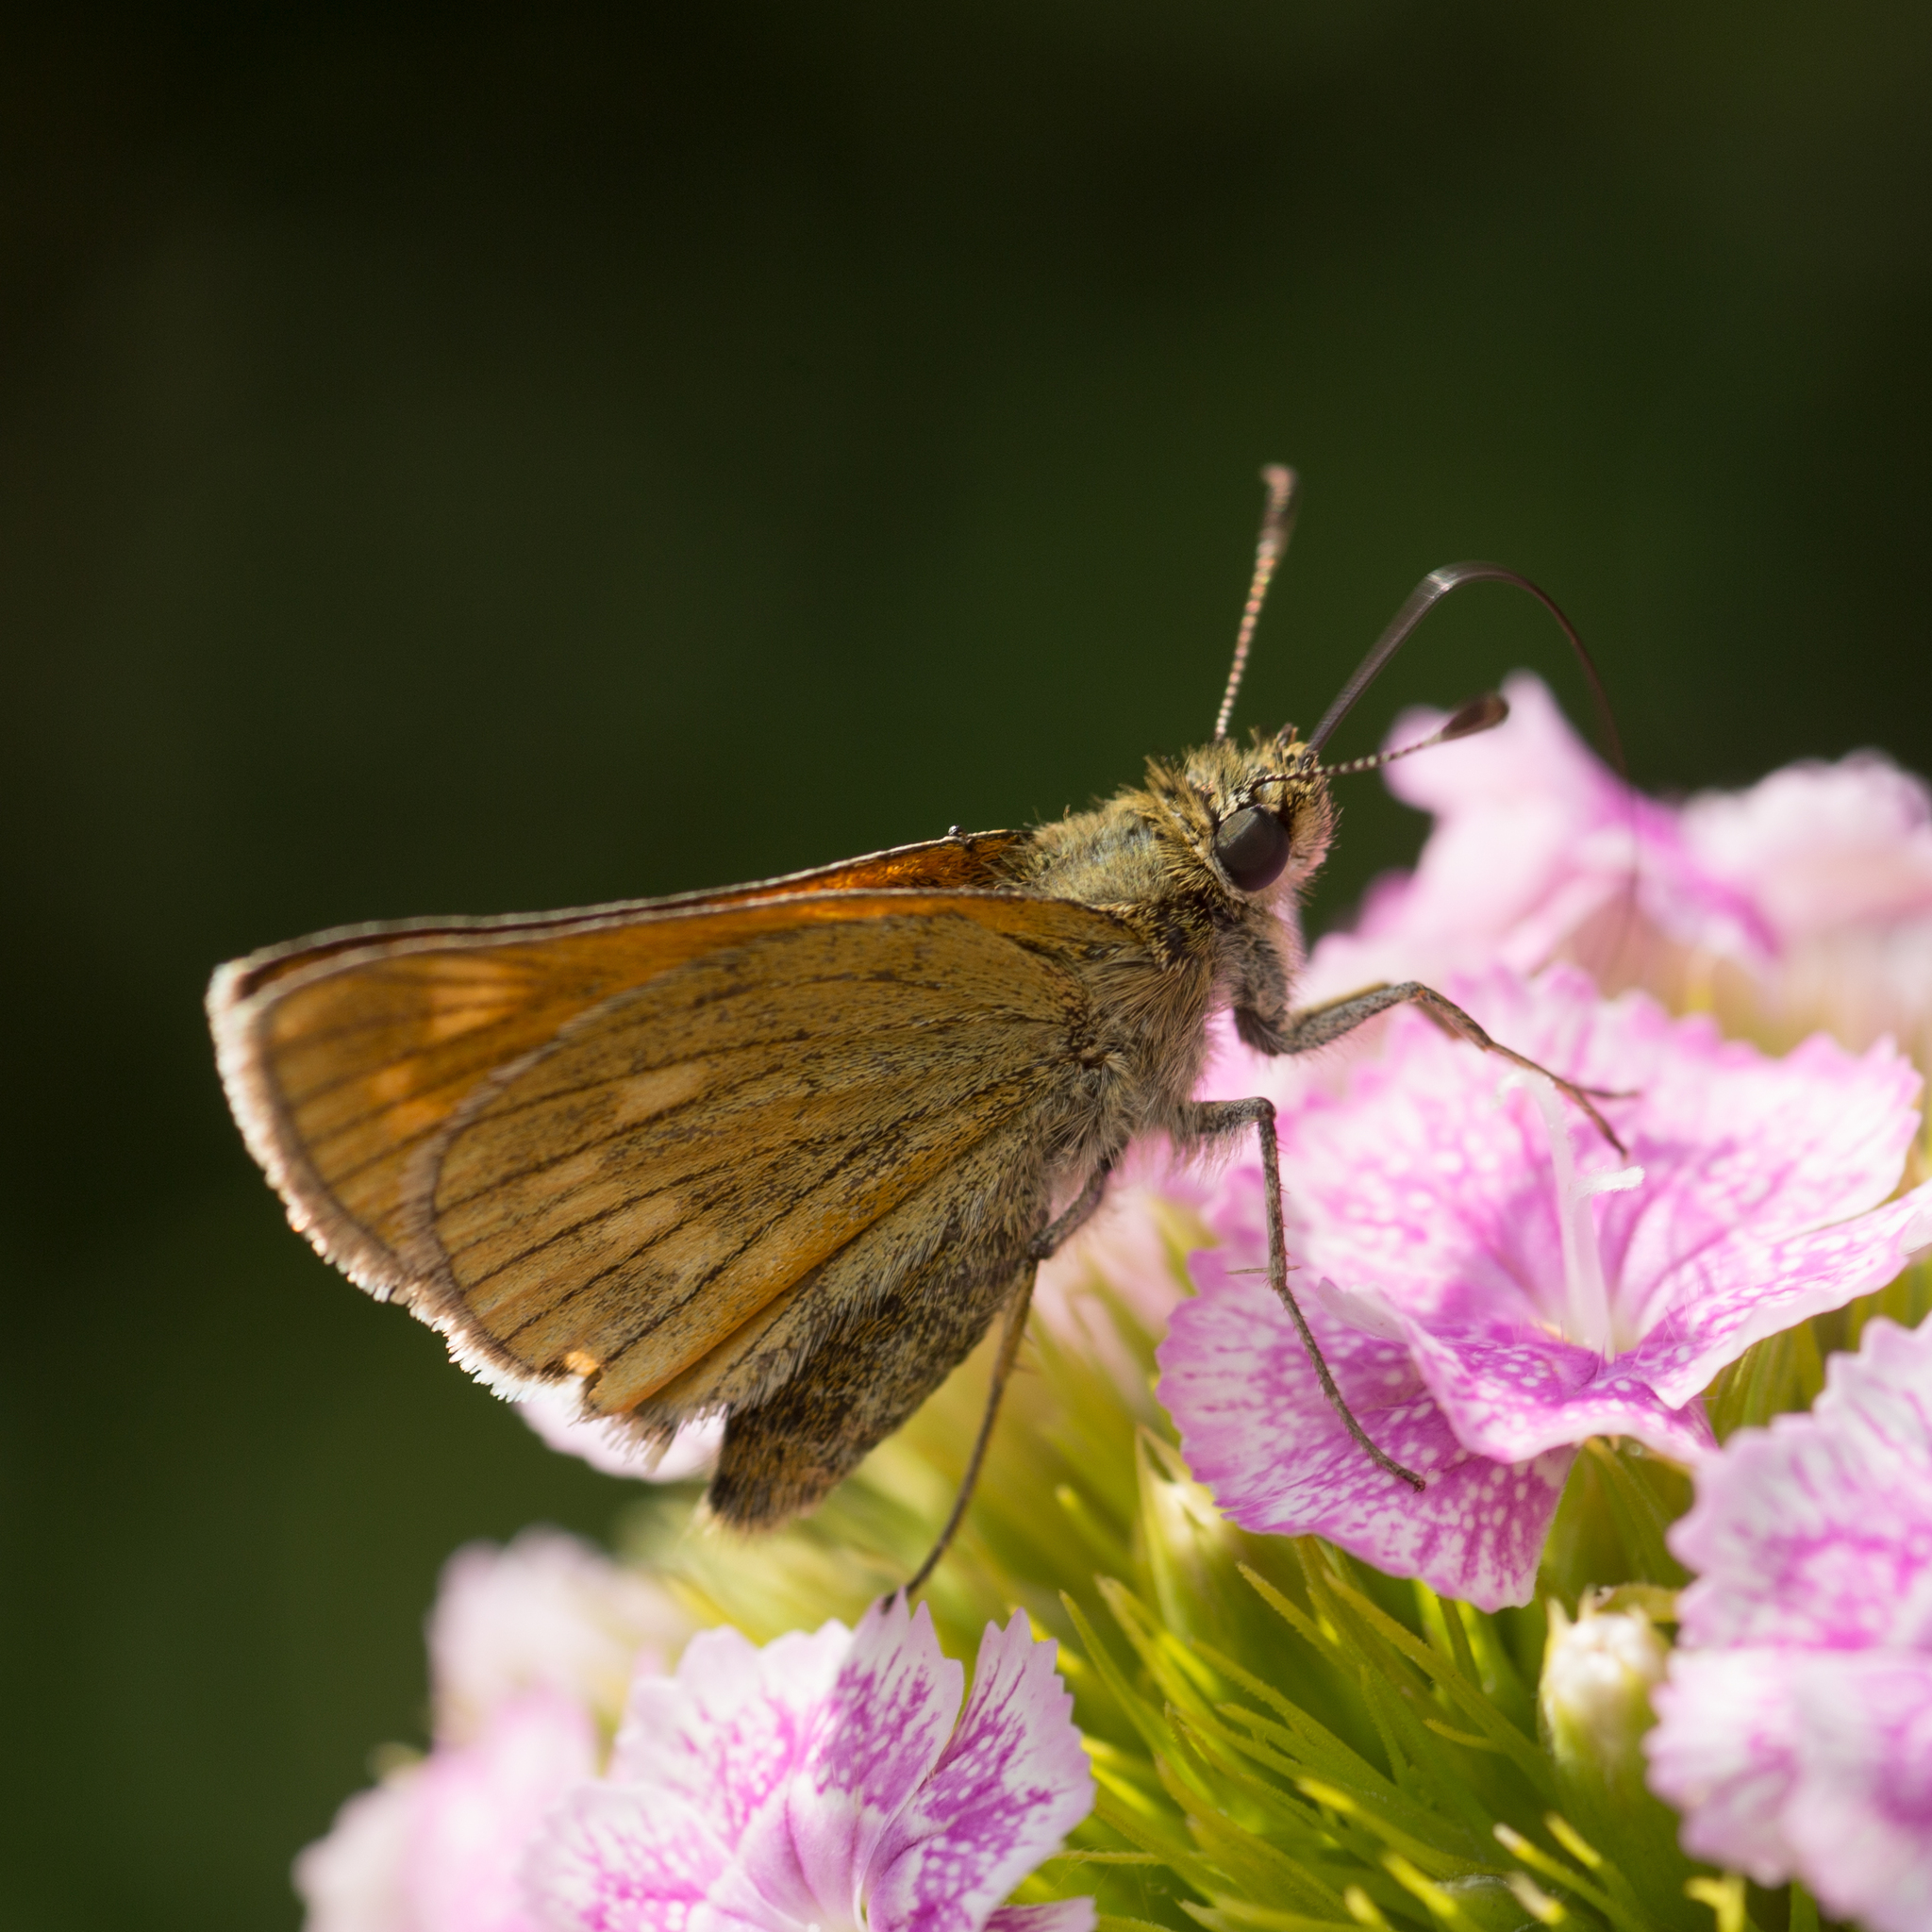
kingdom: Animalia
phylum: Arthropoda
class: Insecta
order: Lepidoptera
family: Hesperiidae
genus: Ochlodes
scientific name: Ochlodes venata
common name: Large skipper
